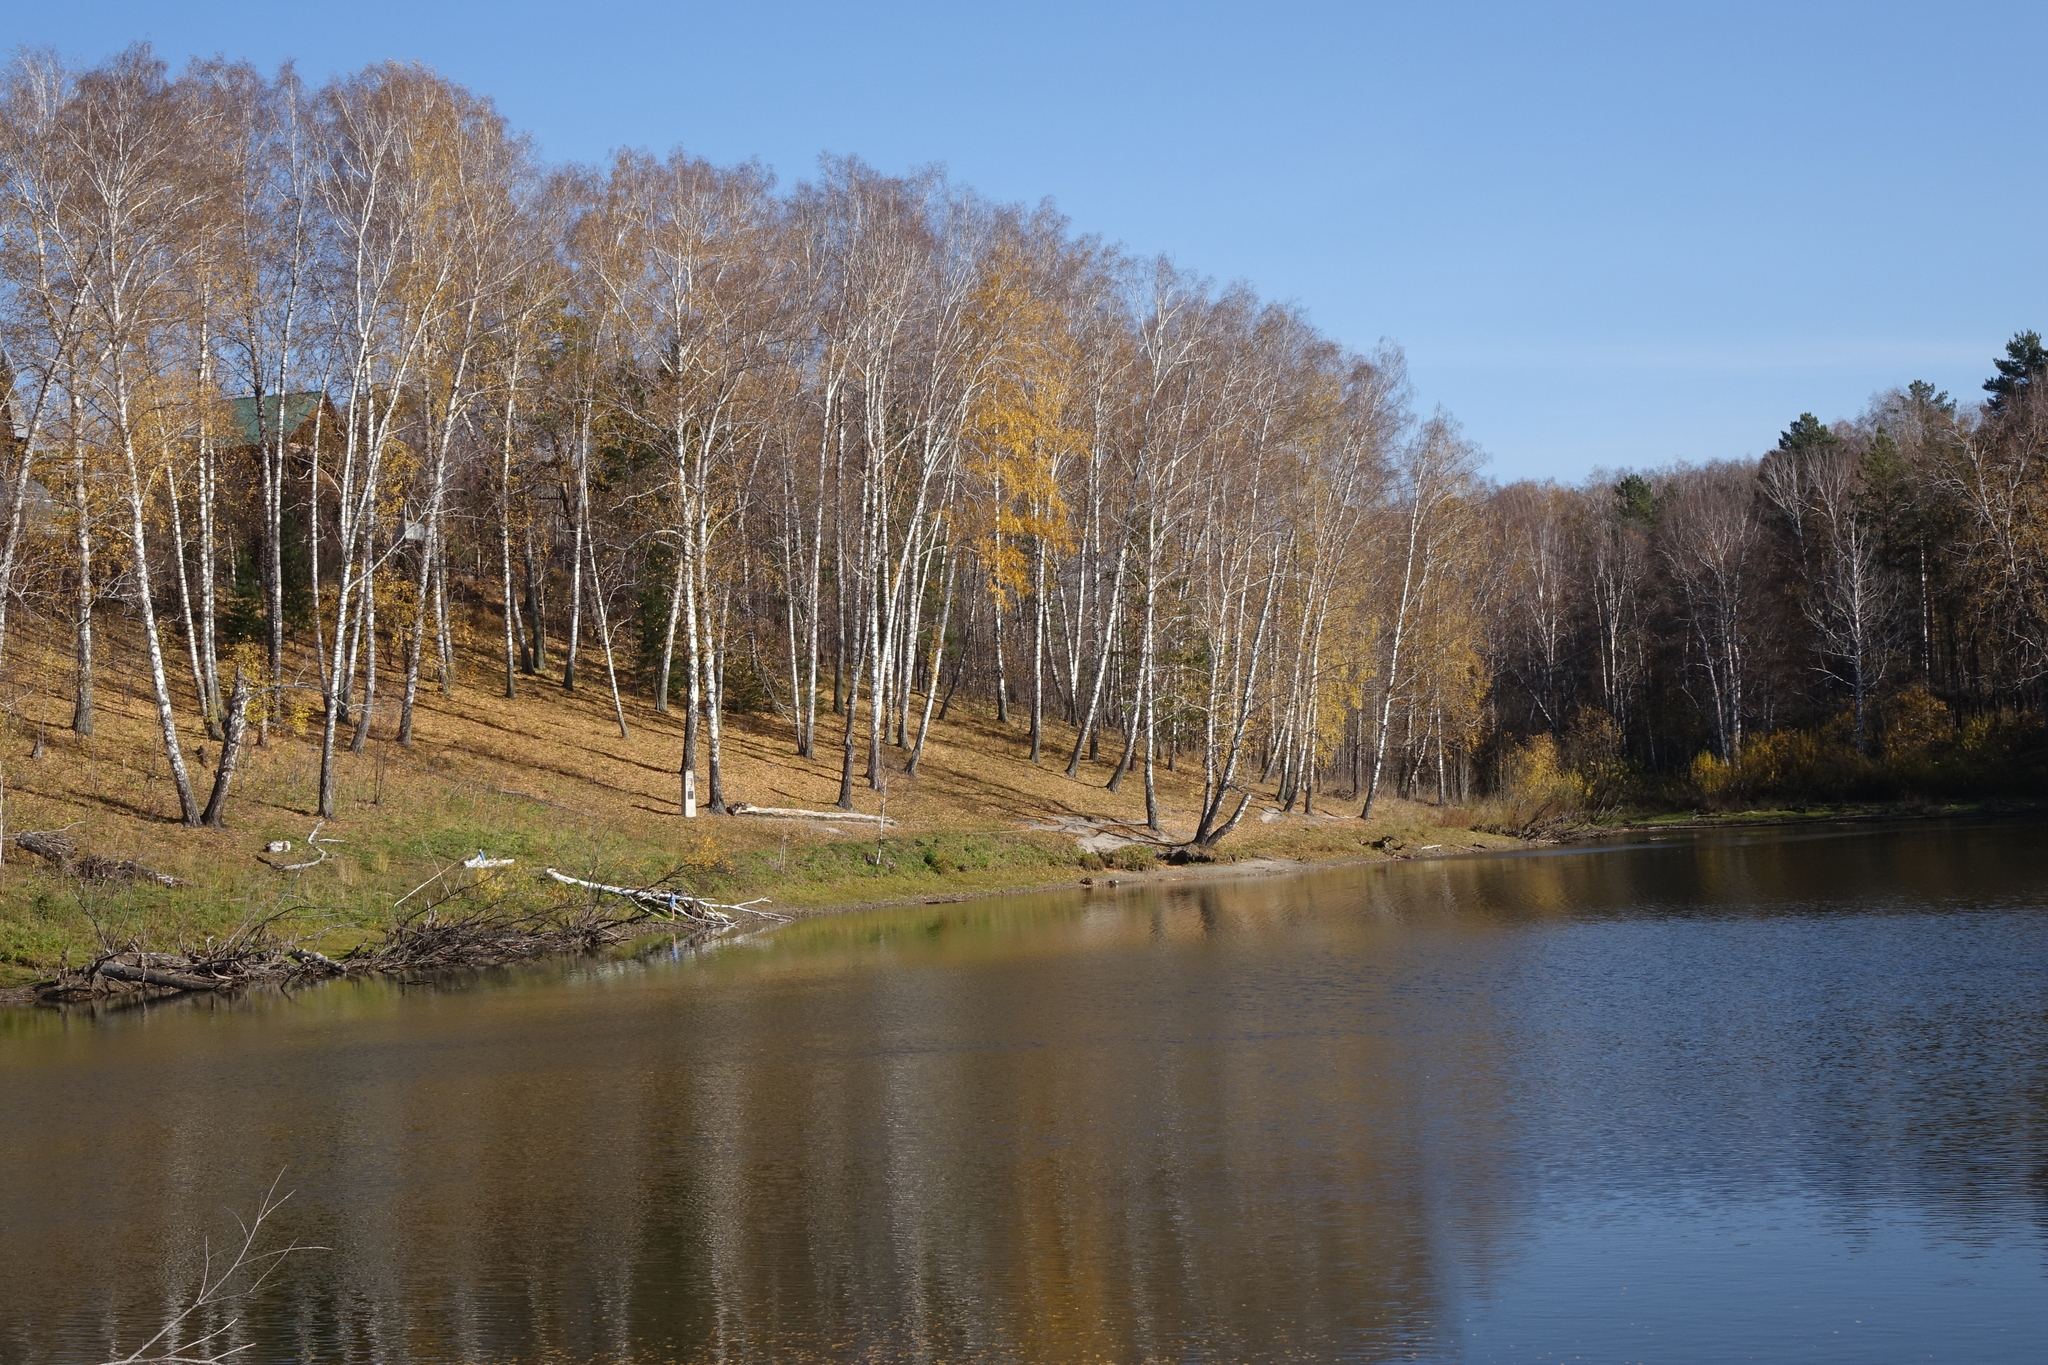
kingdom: Plantae
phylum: Tracheophyta
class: Magnoliopsida
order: Fagales
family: Betulaceae
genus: Betula
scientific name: Betula pendula
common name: Silver birch
